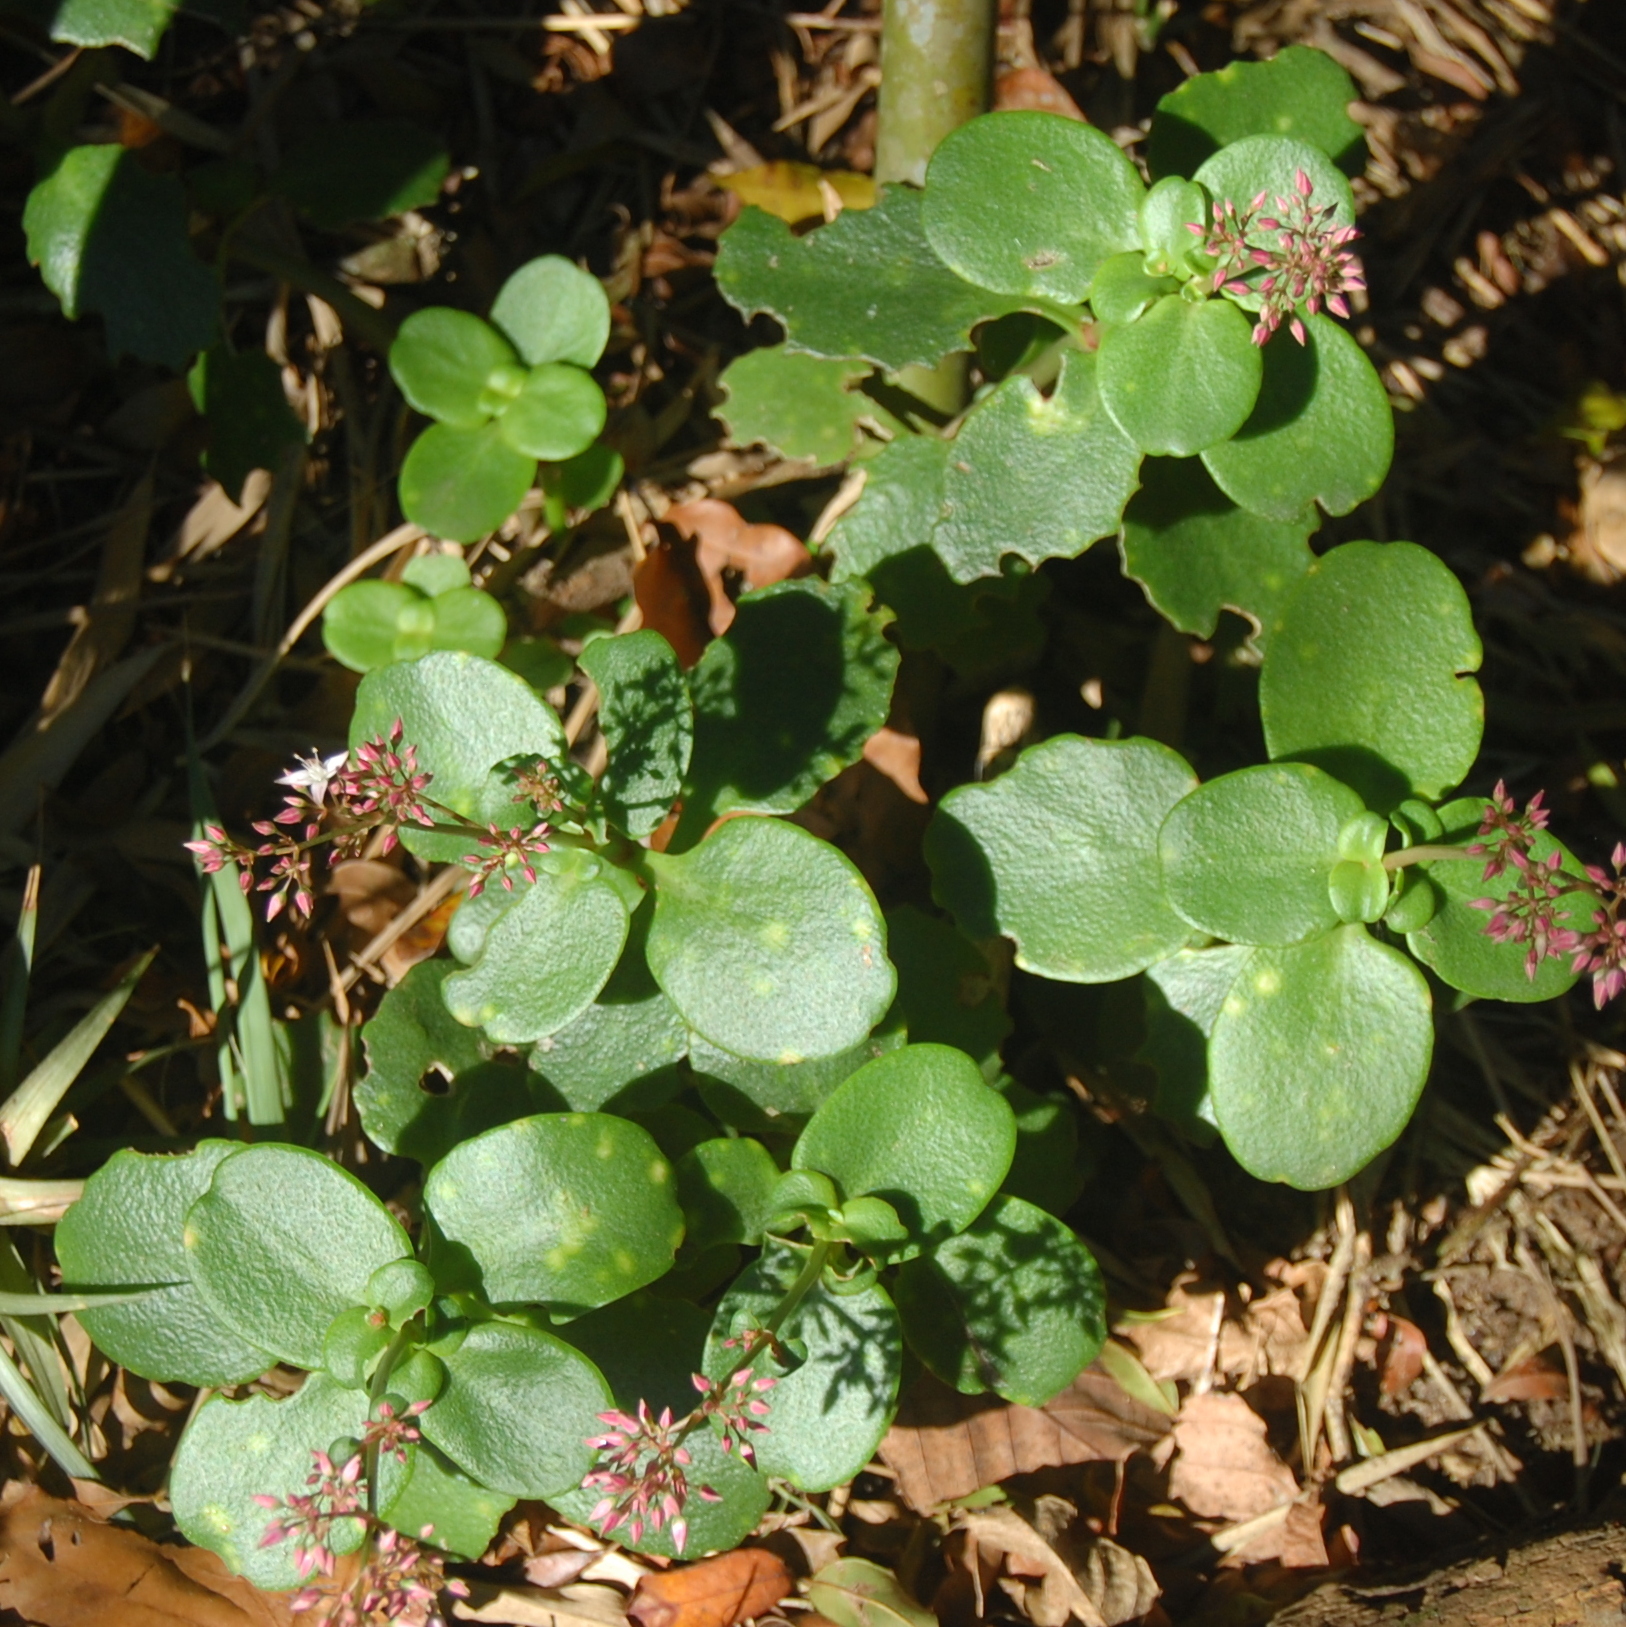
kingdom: Plantae
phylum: Tracheophyta
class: Magnoliopsida
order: Saxifragales
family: Crassulaceae
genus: Crassula
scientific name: Crassula multicava
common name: Cape province pygmyweed
